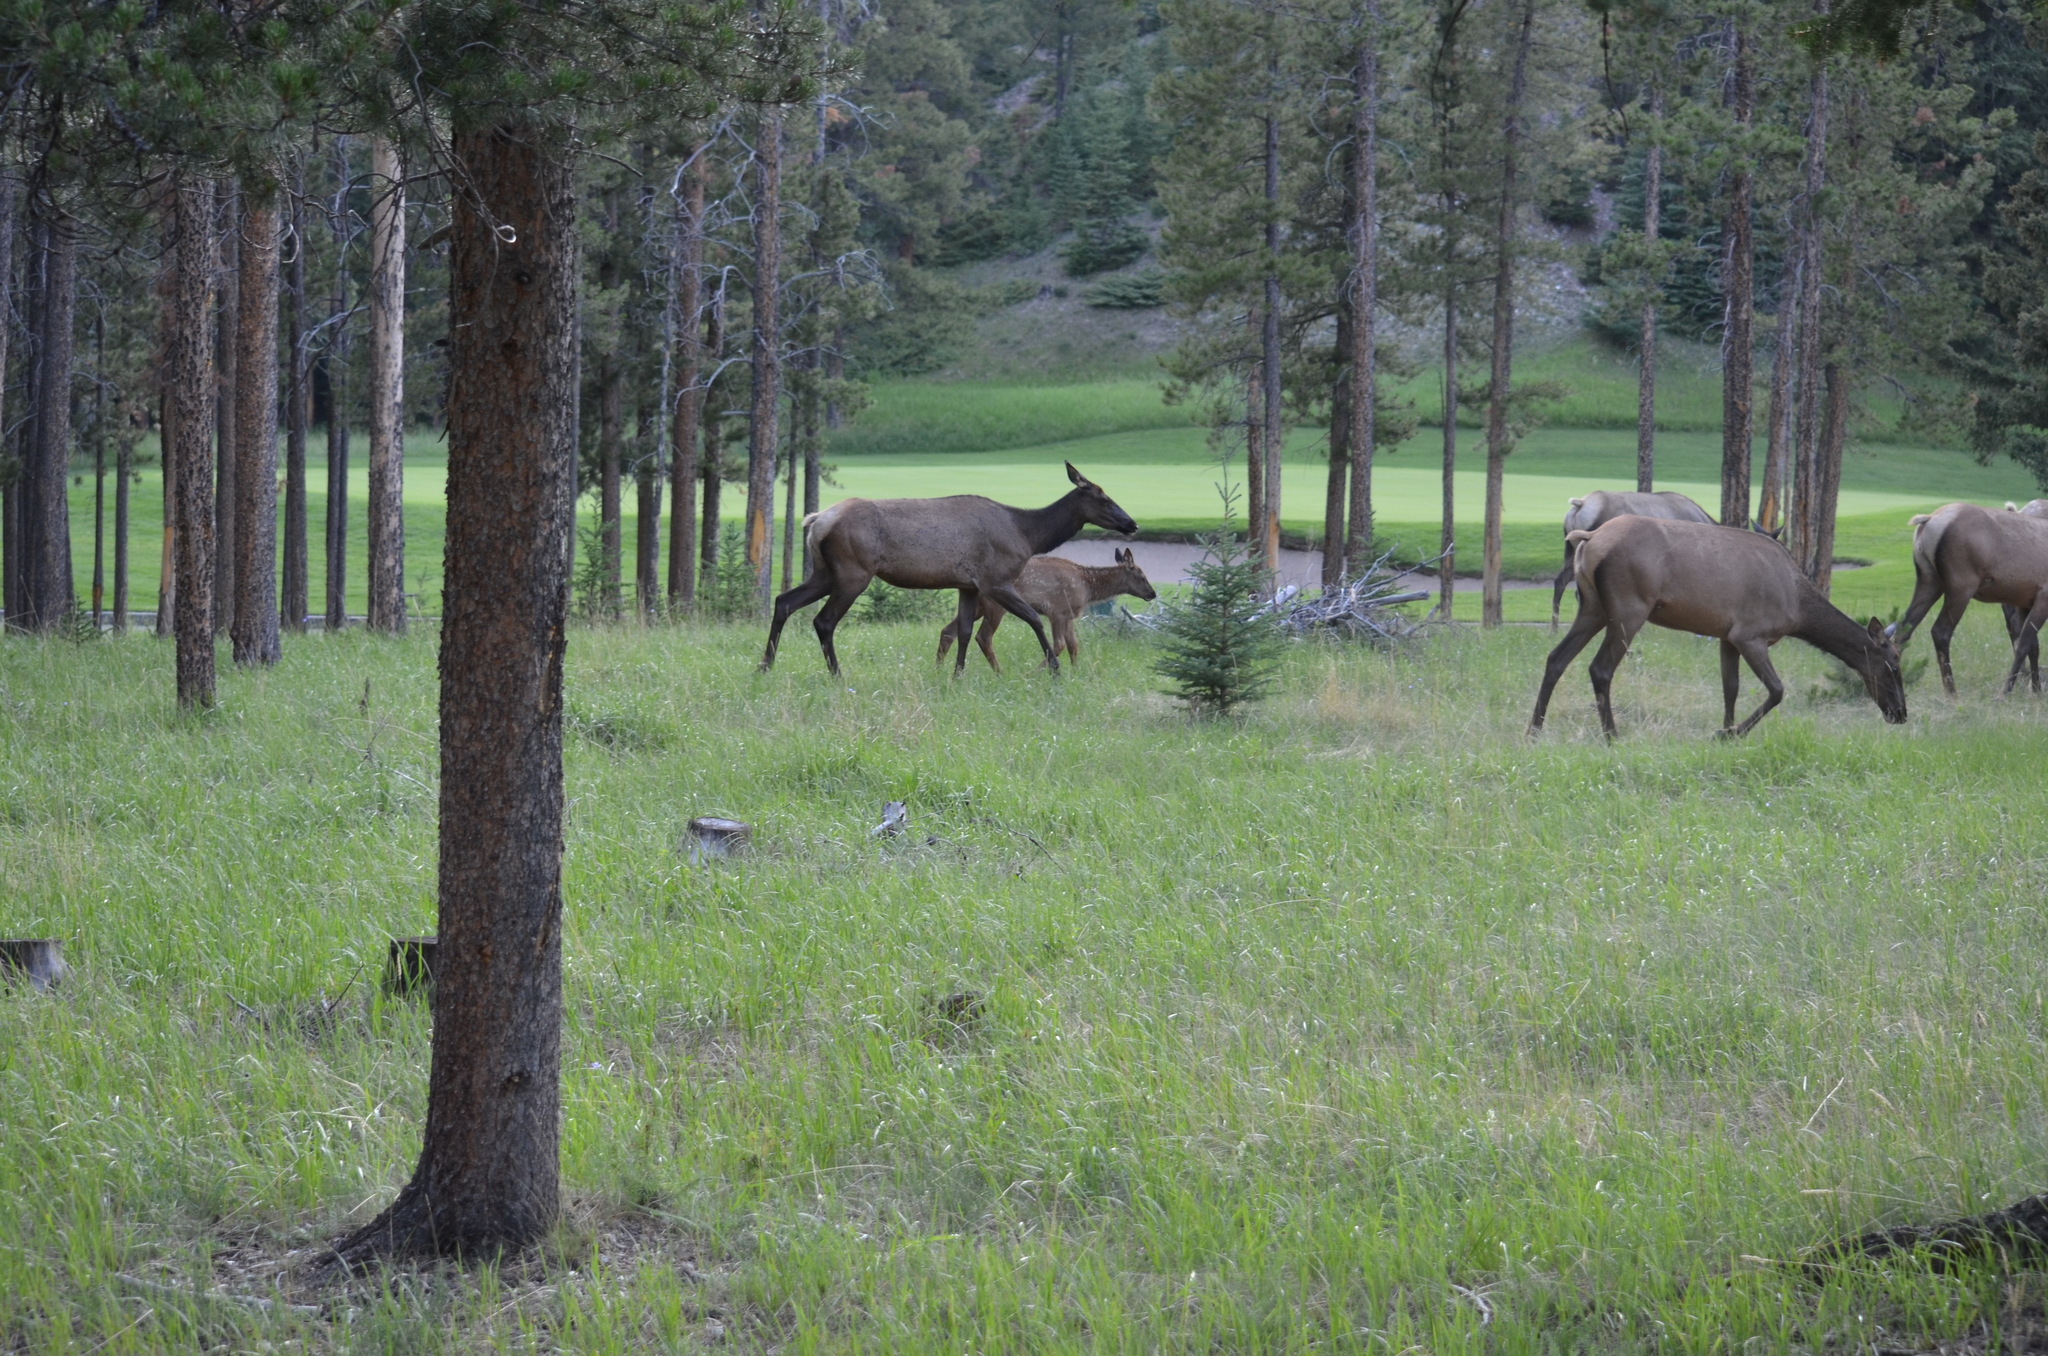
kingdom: Animalia
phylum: Chordata
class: Mammalia
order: Artiodactyla
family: Cervidae
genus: Cervus
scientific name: Cervus elaphus
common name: Red deer
